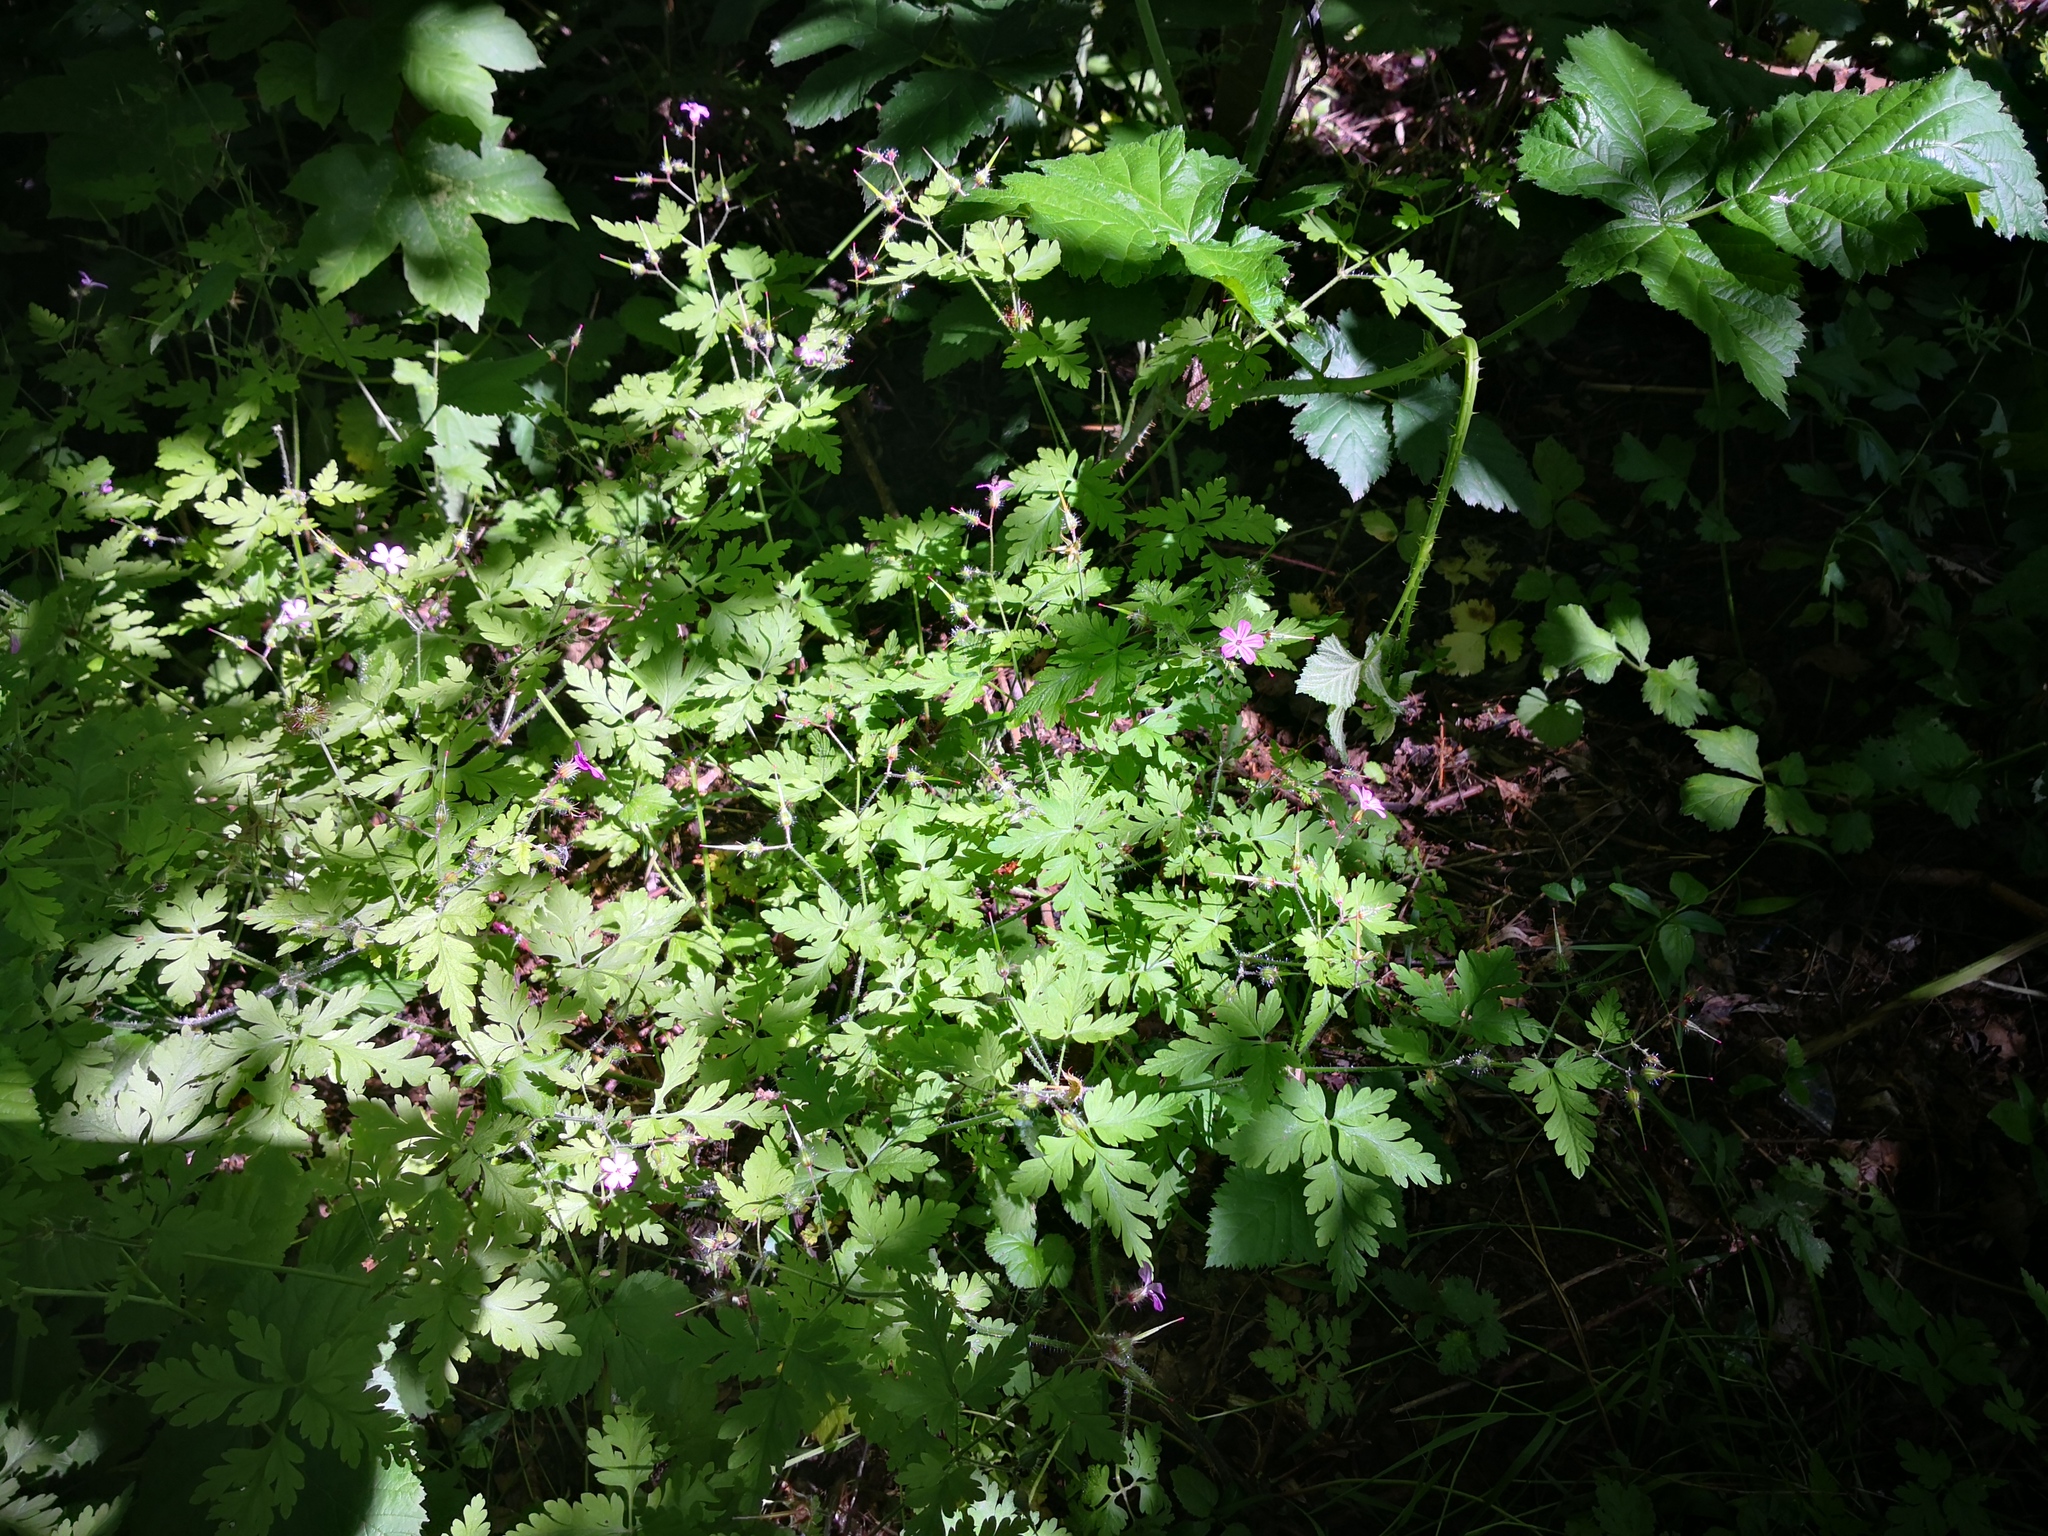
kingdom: Plantae
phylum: Tracheophyta
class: Magnoliopsida
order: Geraniales
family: Geraniaceae
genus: Geranium
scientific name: Geranium robertianum
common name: Herb-robert
